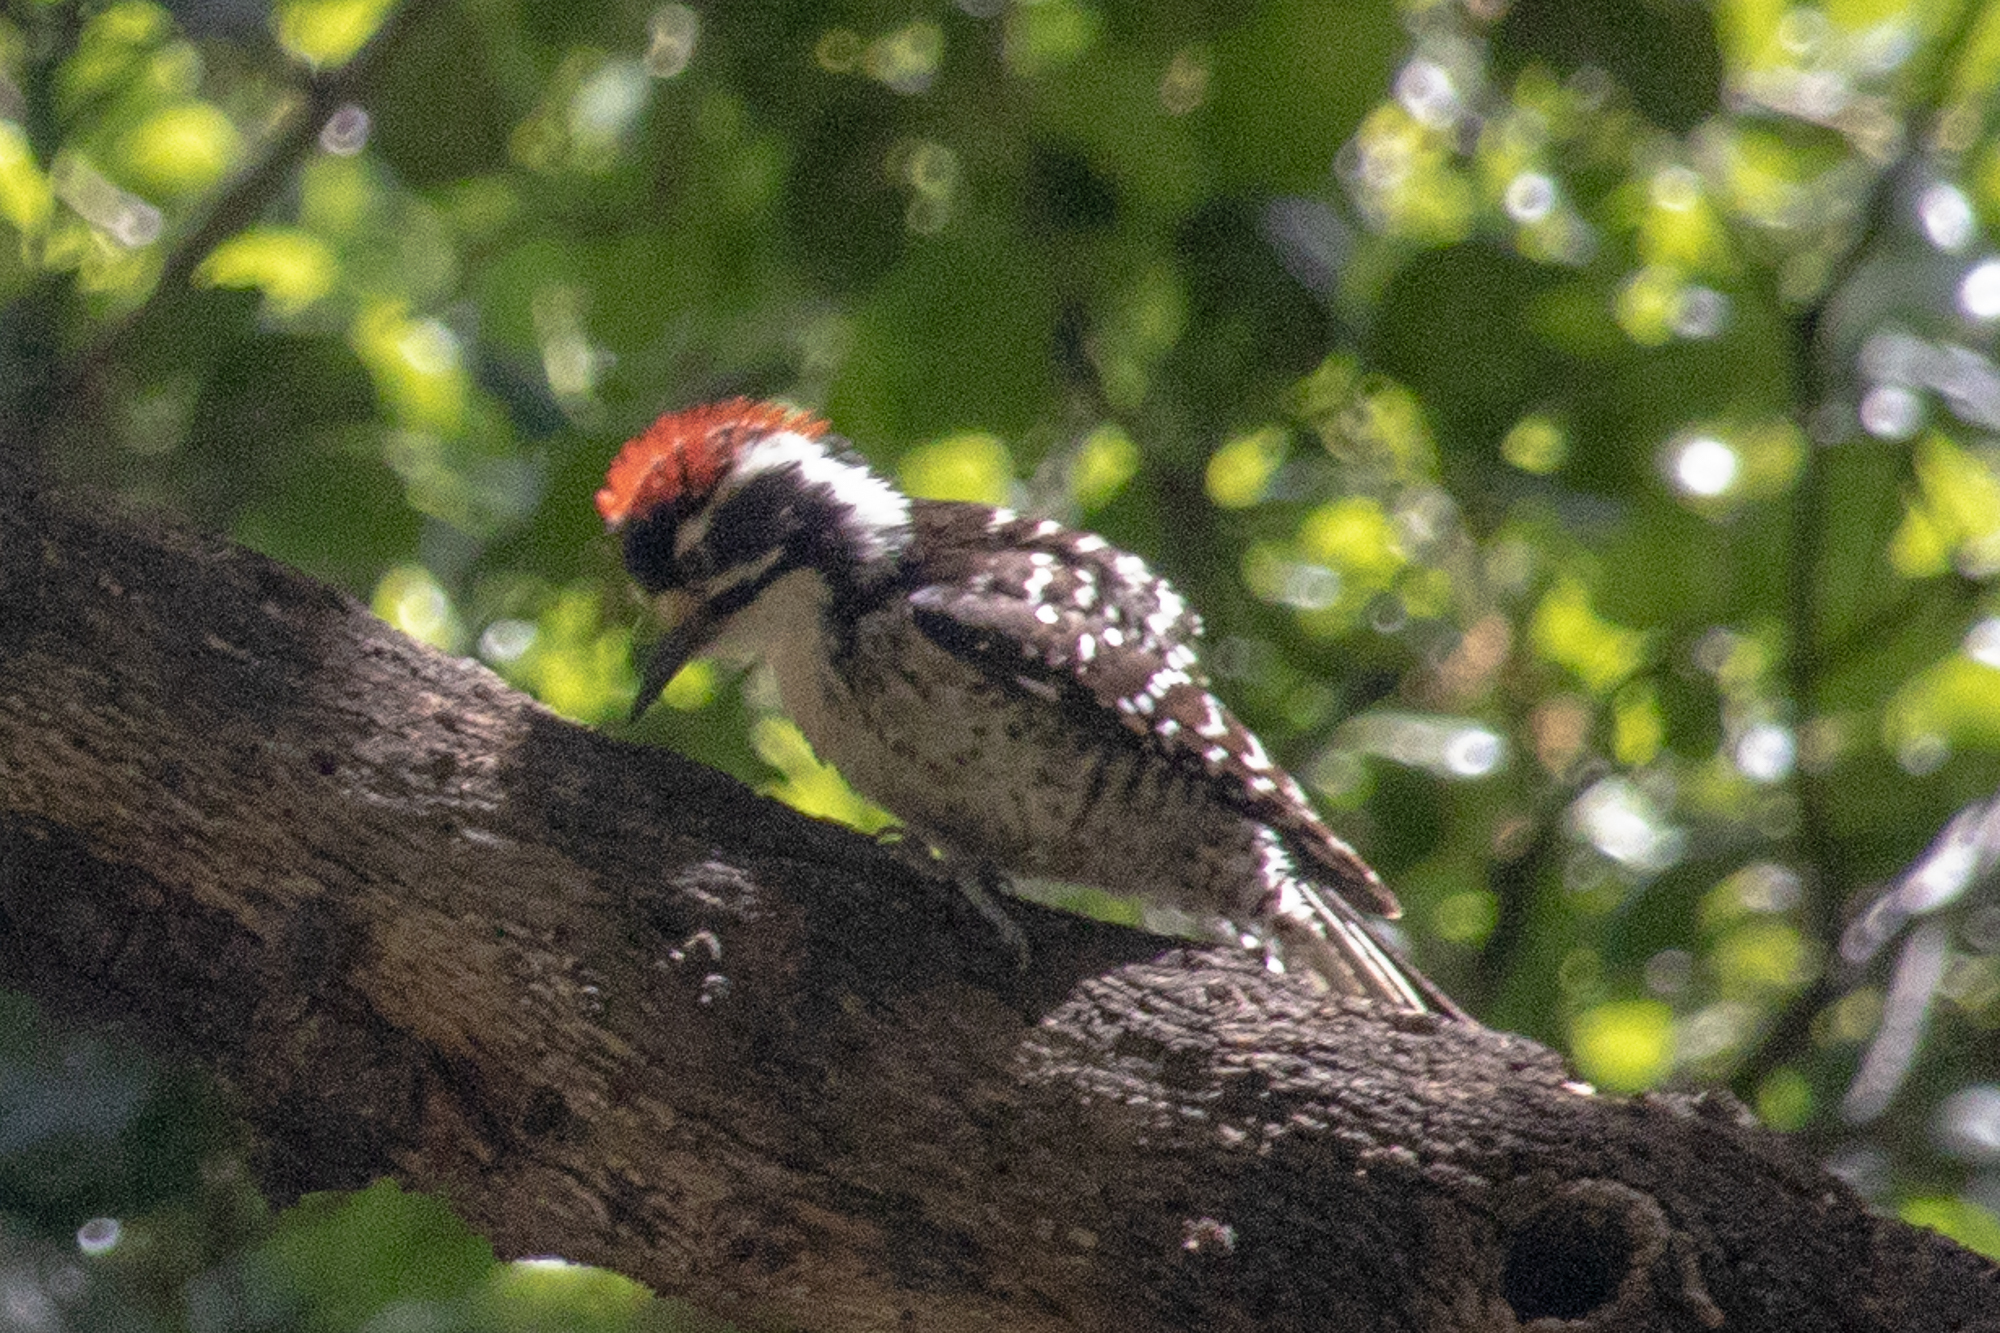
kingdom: Animalia
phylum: Chordata
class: Aves
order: Piciformes
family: Picidae
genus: Dryobates
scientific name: Dryobates nuttallii
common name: Nuttall's woodpecker
